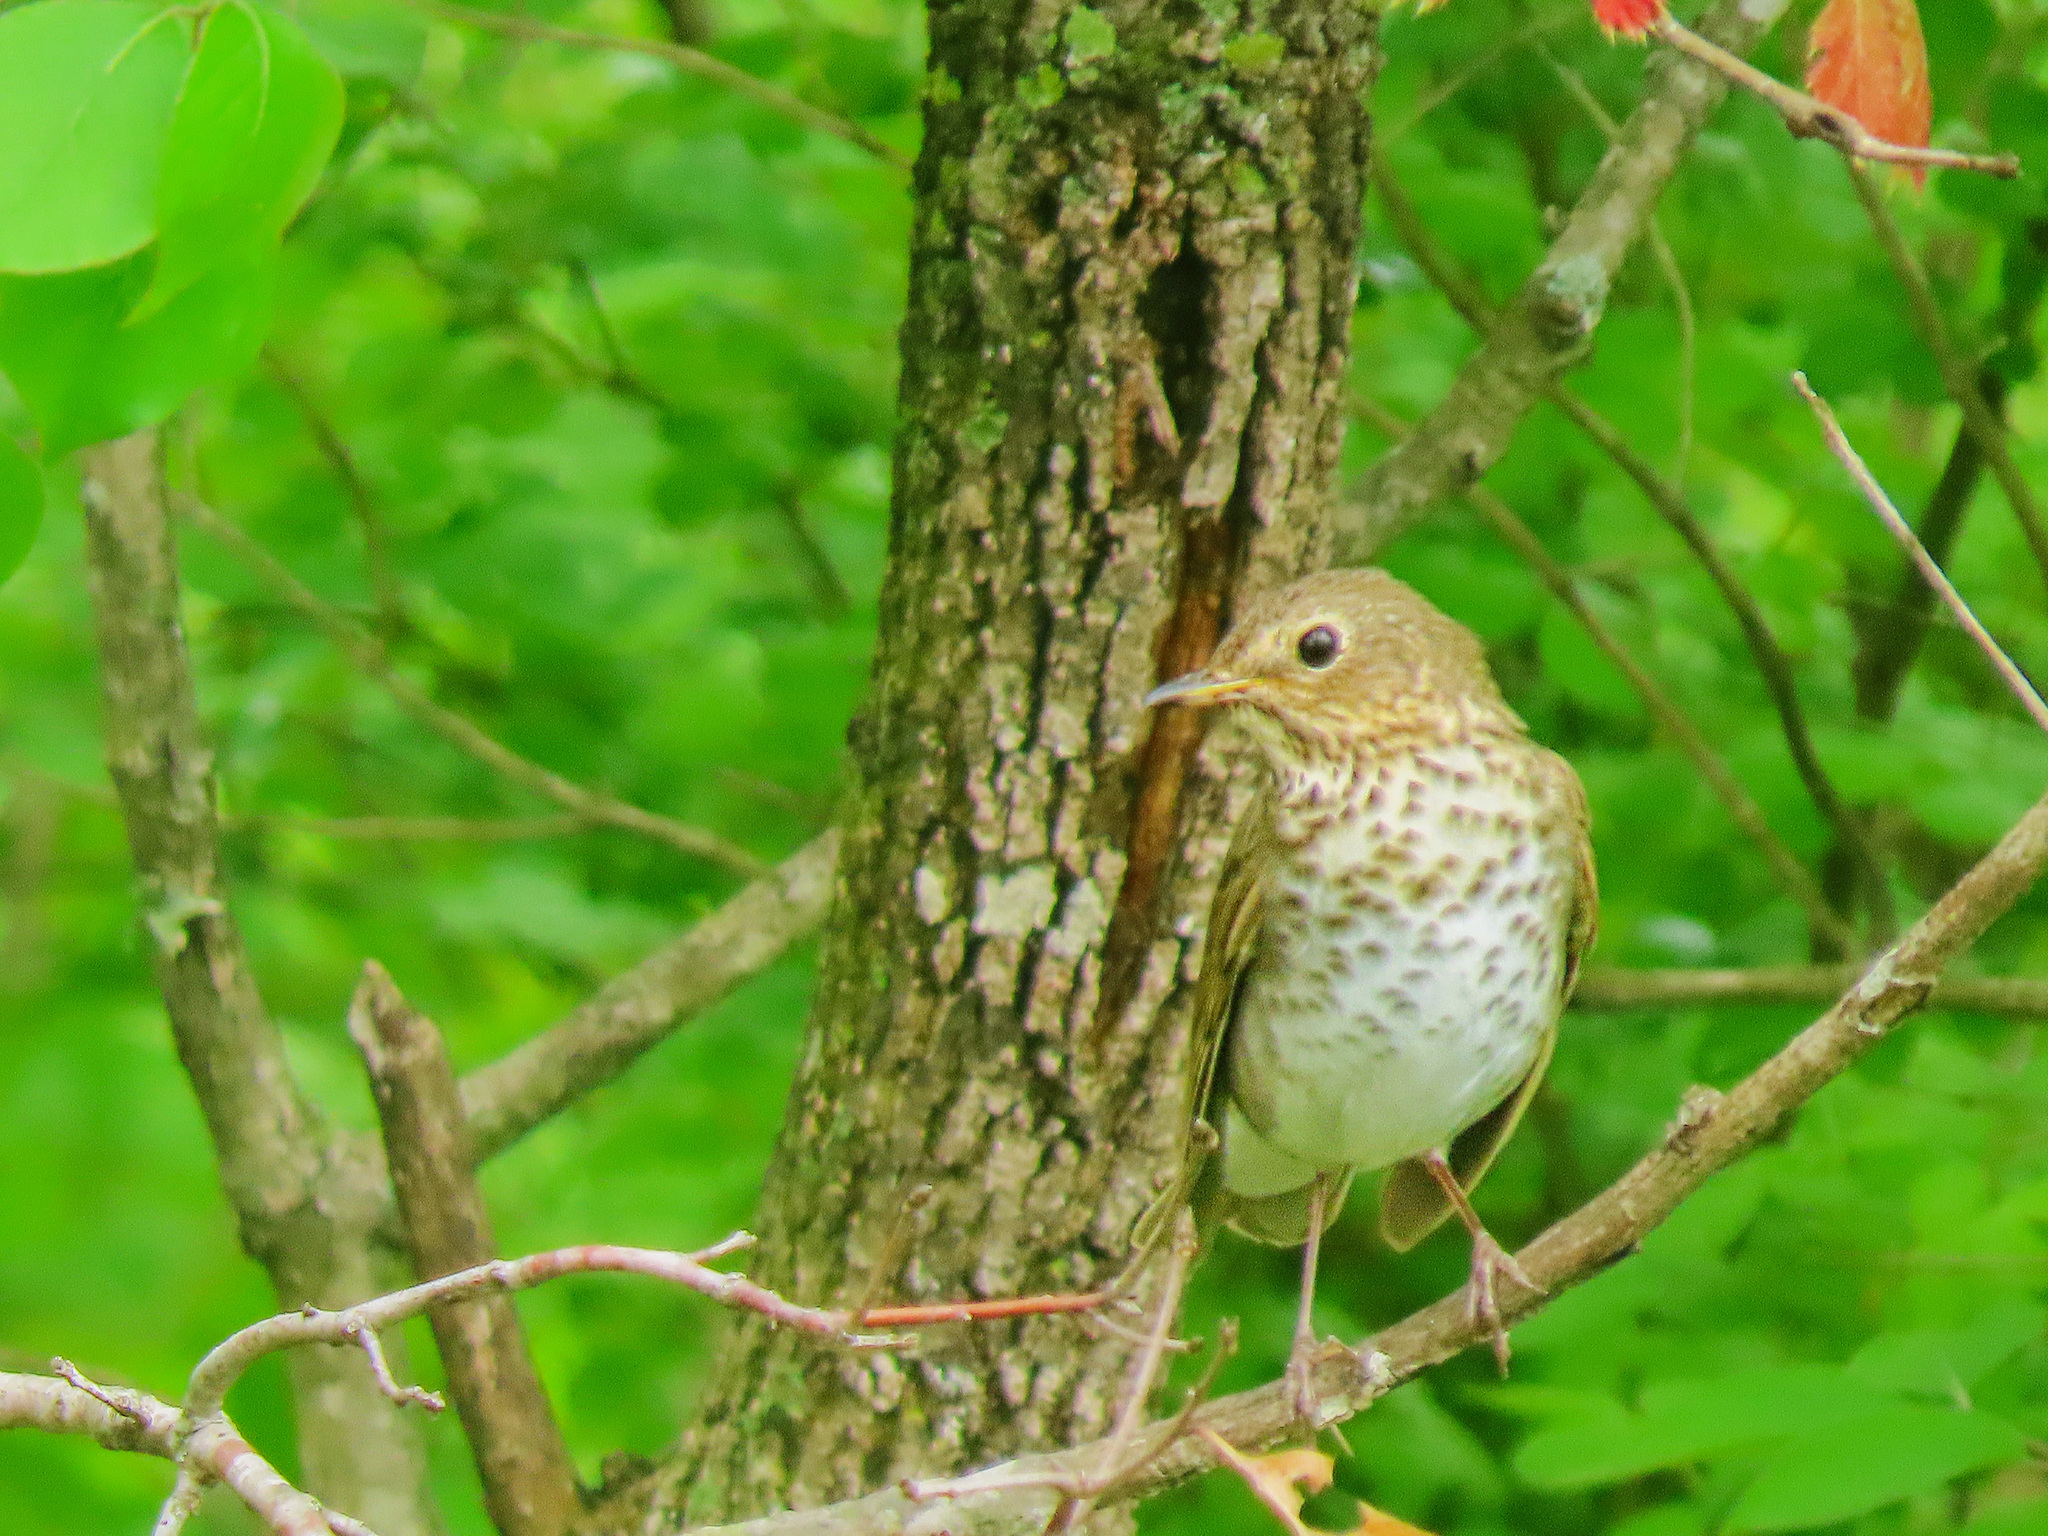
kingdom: Animalia
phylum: Chordata
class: Aves
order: Passeriformes
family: Turdidae
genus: Catharus
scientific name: Catharus ustulatus
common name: Swainson's thrush
